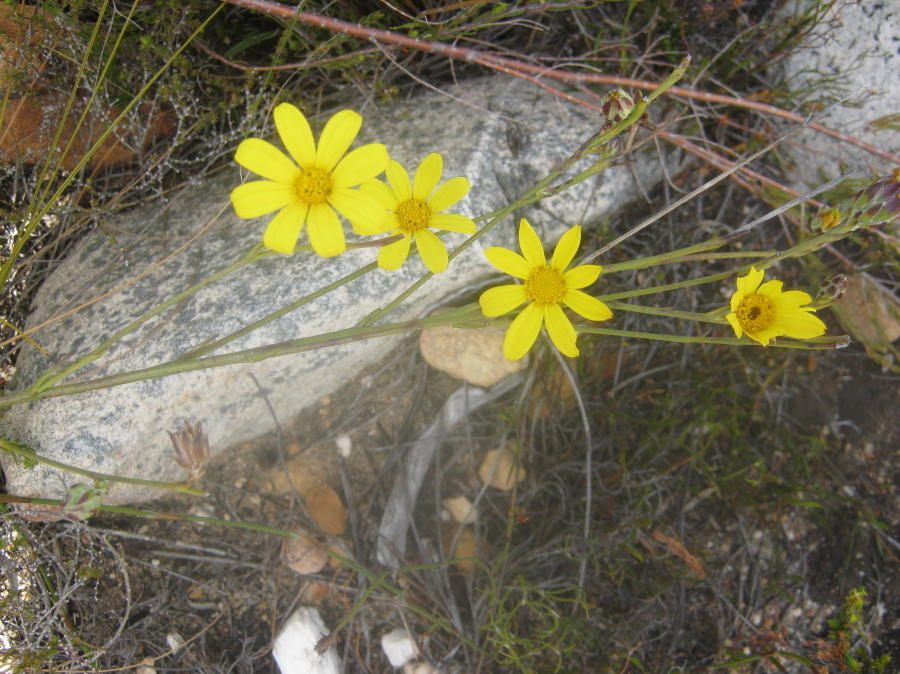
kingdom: Plantae
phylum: Tracheophyta
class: Magnoliopsida
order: Asterales
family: Asteraceae
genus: Osteospermum
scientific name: Osteospermum asperulum
